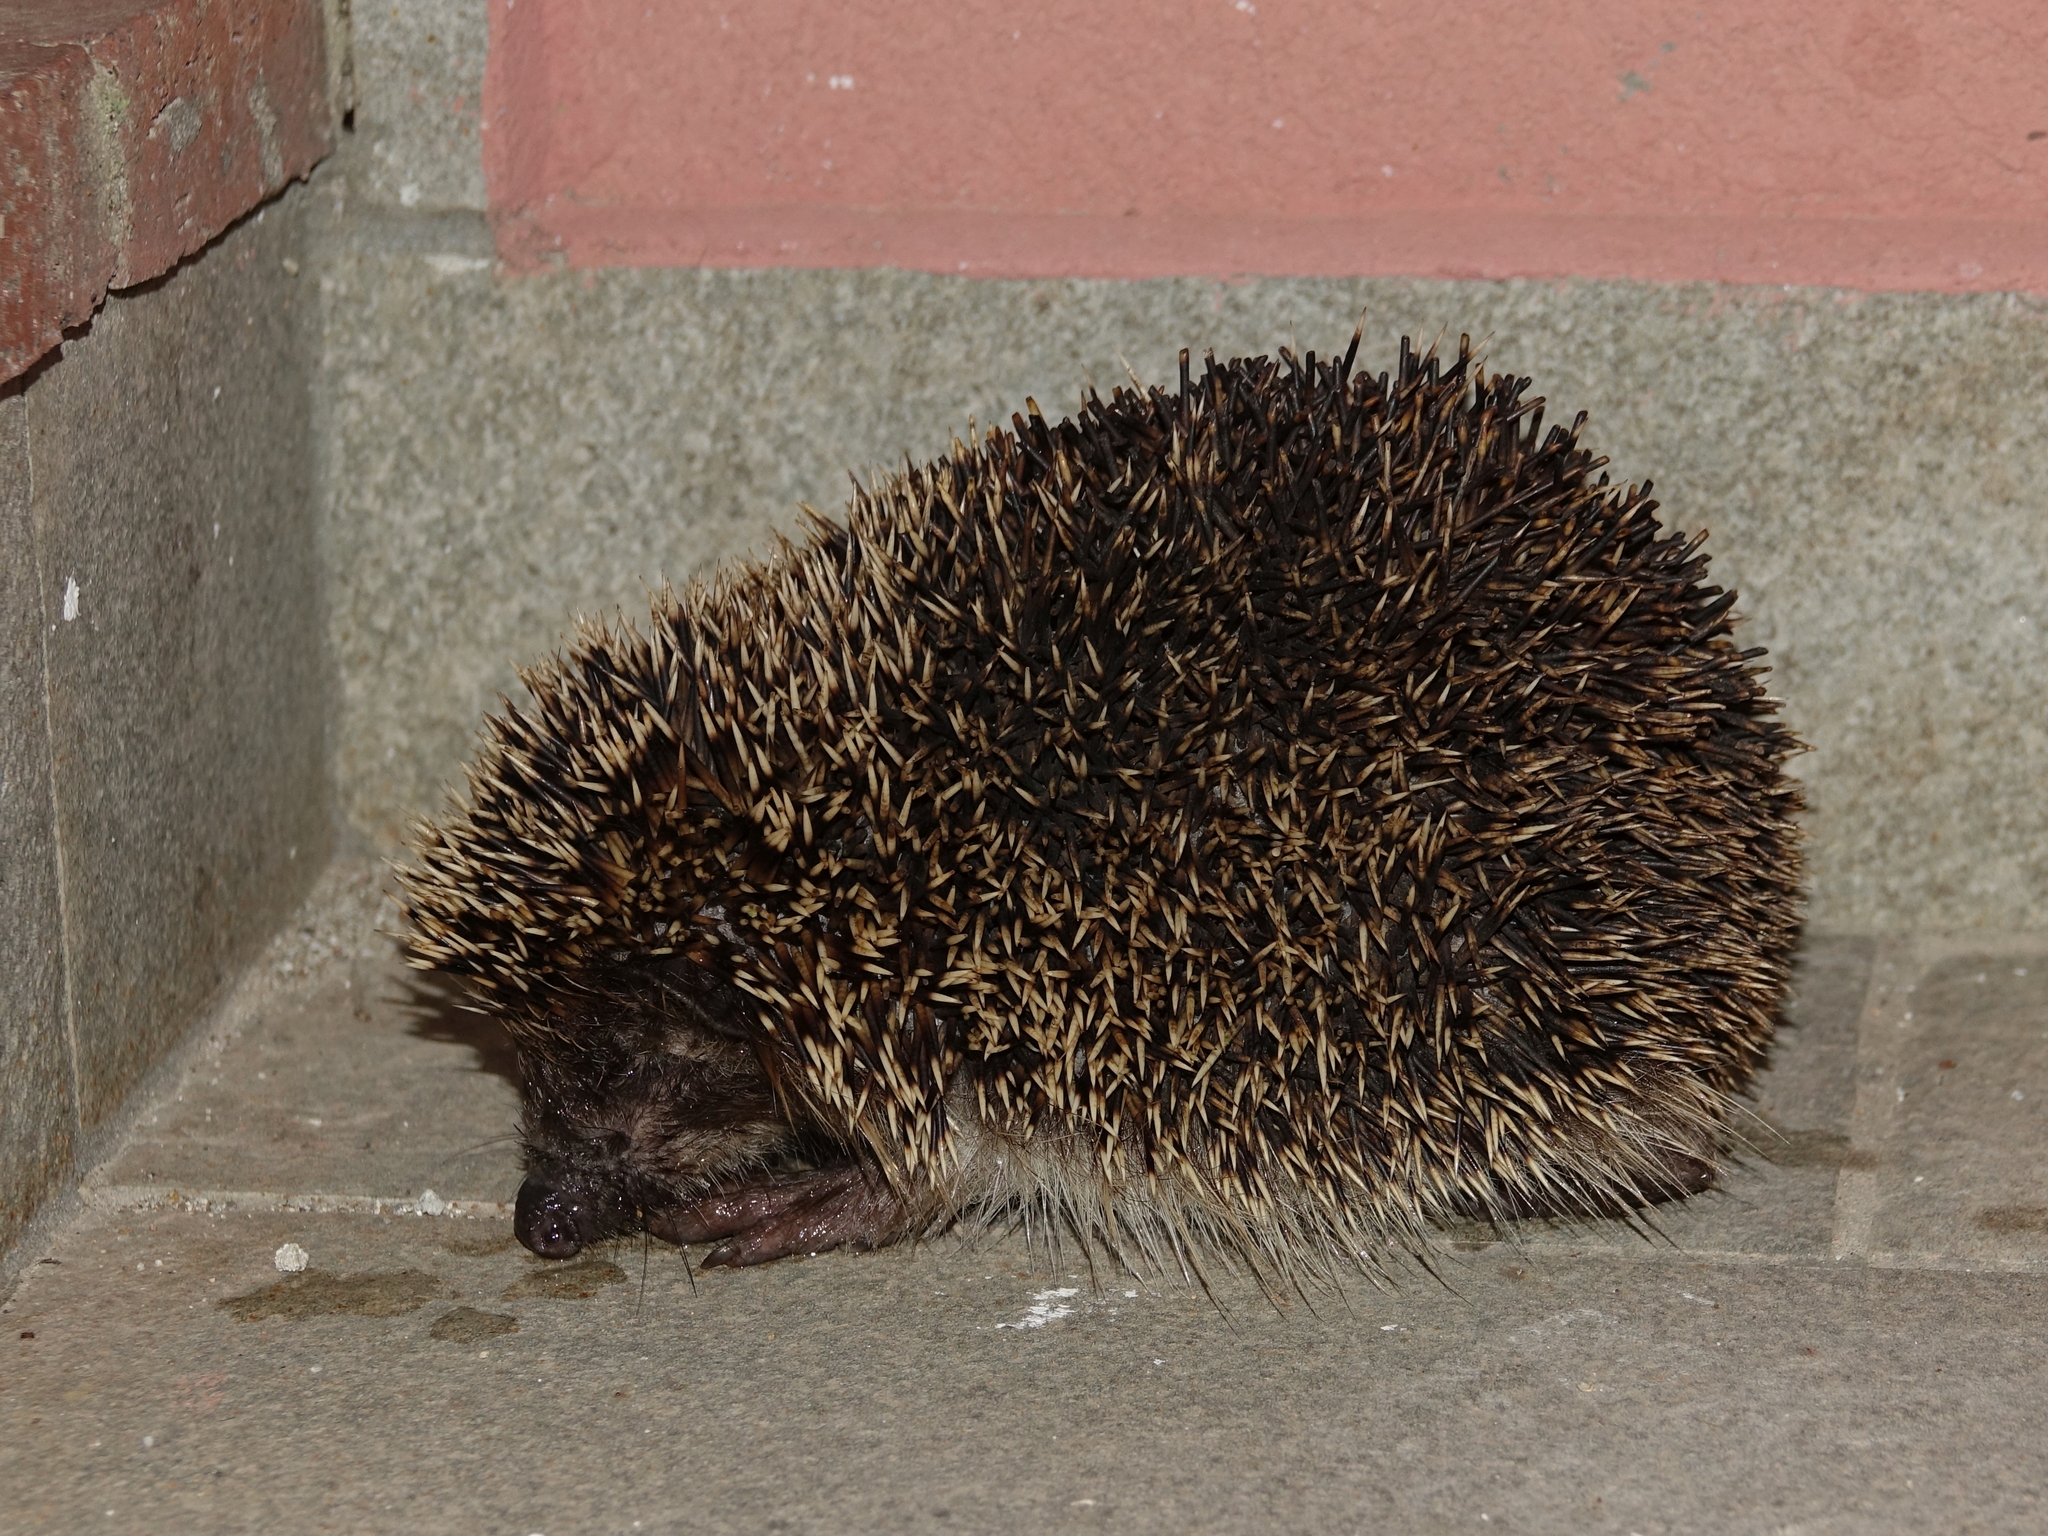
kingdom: Animalia
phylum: Chordata
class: Mammalia
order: Erinaceomorpha
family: Erinaceidae
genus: Erinaceus
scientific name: Erinaceus europaeus
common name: West european hedgehog
